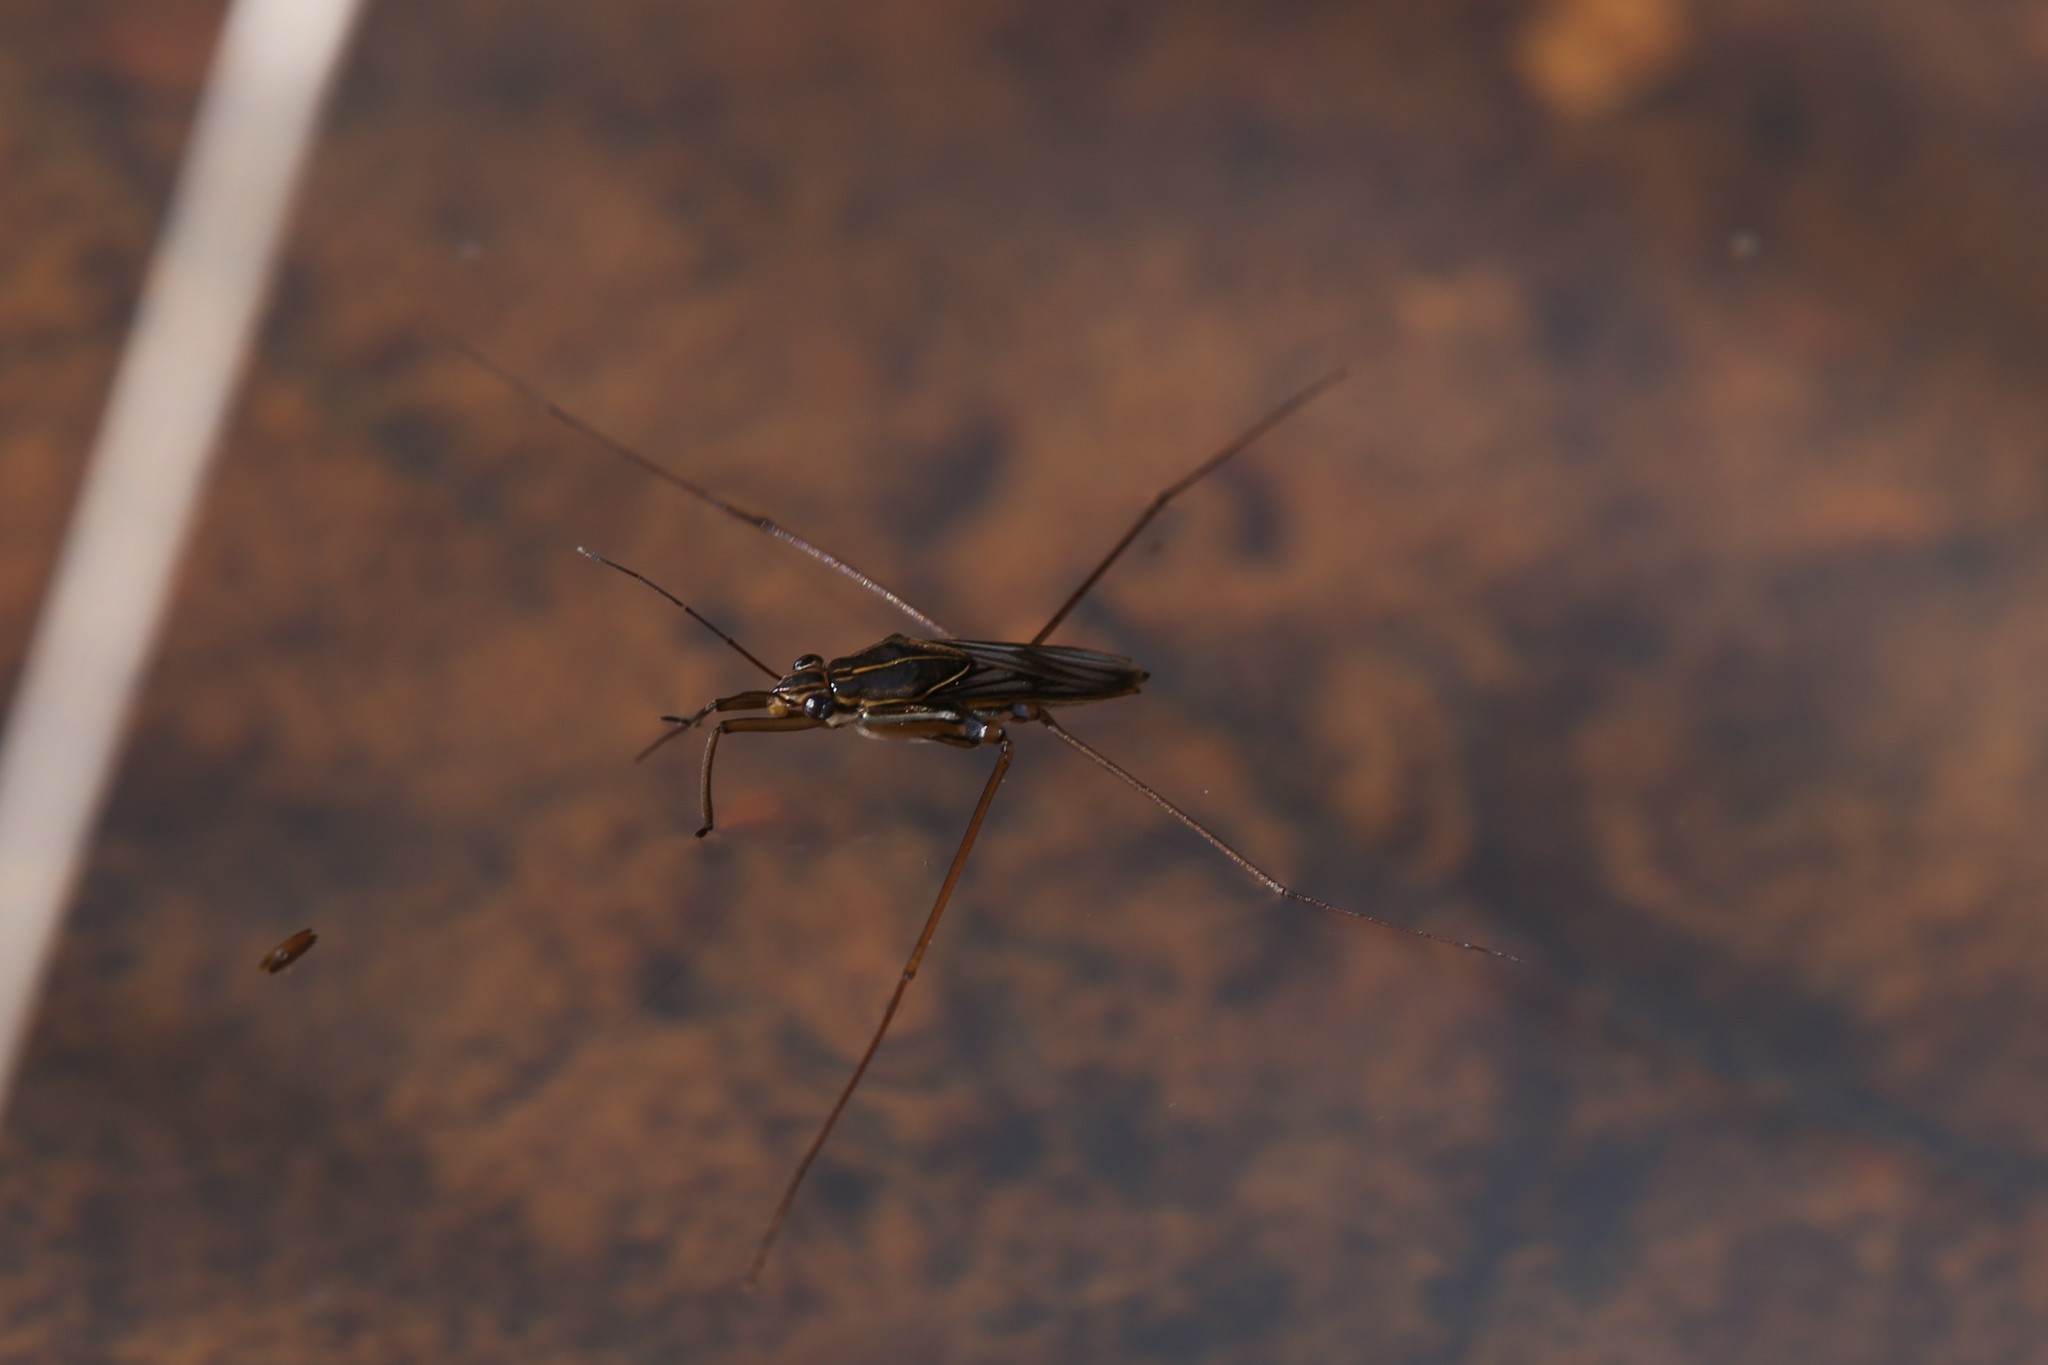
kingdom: Animalia
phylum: Arthropoda
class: Insecta
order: Hemiptera
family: Gerridae
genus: Limnogonus
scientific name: Limnogonus
